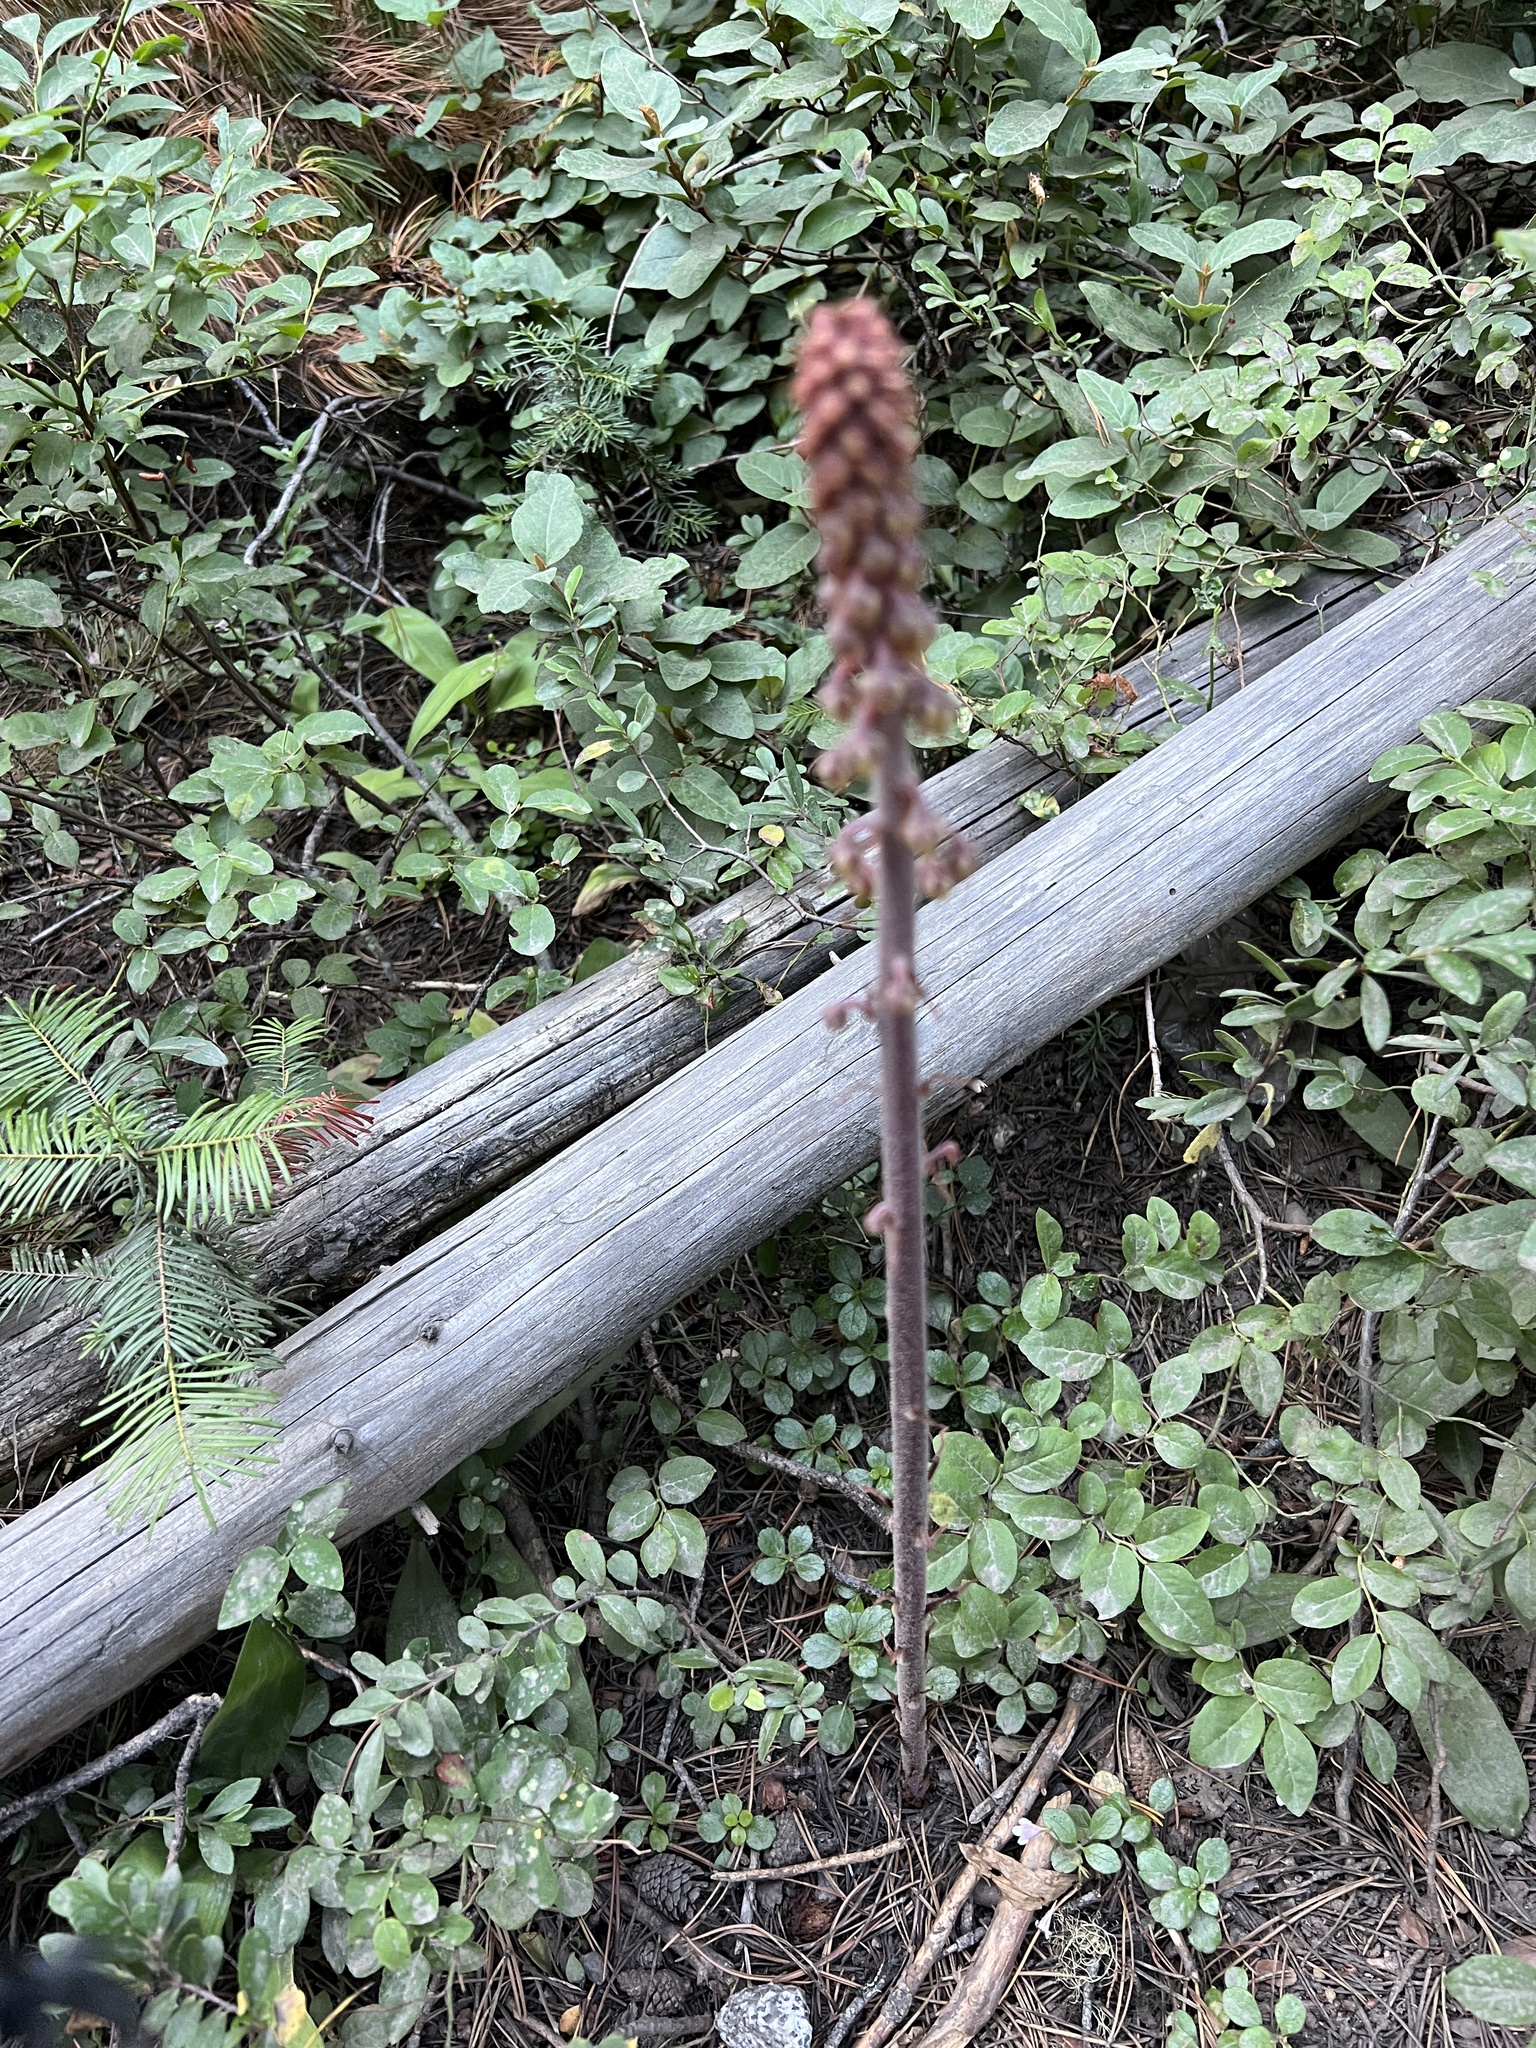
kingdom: Plantae
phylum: Tracheophyta
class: Magnoliopsida
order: Ericales
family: Ericaceae
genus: Pterospora
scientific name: Pterospora andromedea
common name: Giant bird's-nest
